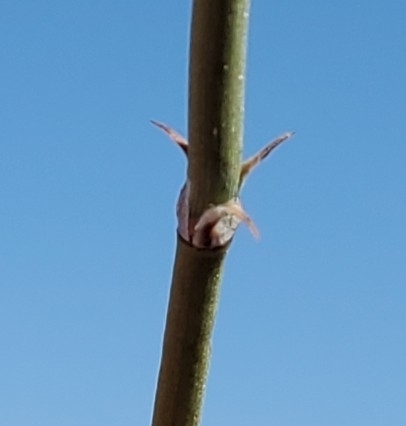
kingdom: Plantae
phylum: Tracheophyta
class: Gnetopsida
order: Ephedrales
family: Ephedraceae
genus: Ephedra
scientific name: Ephedra californica
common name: California ephedra
